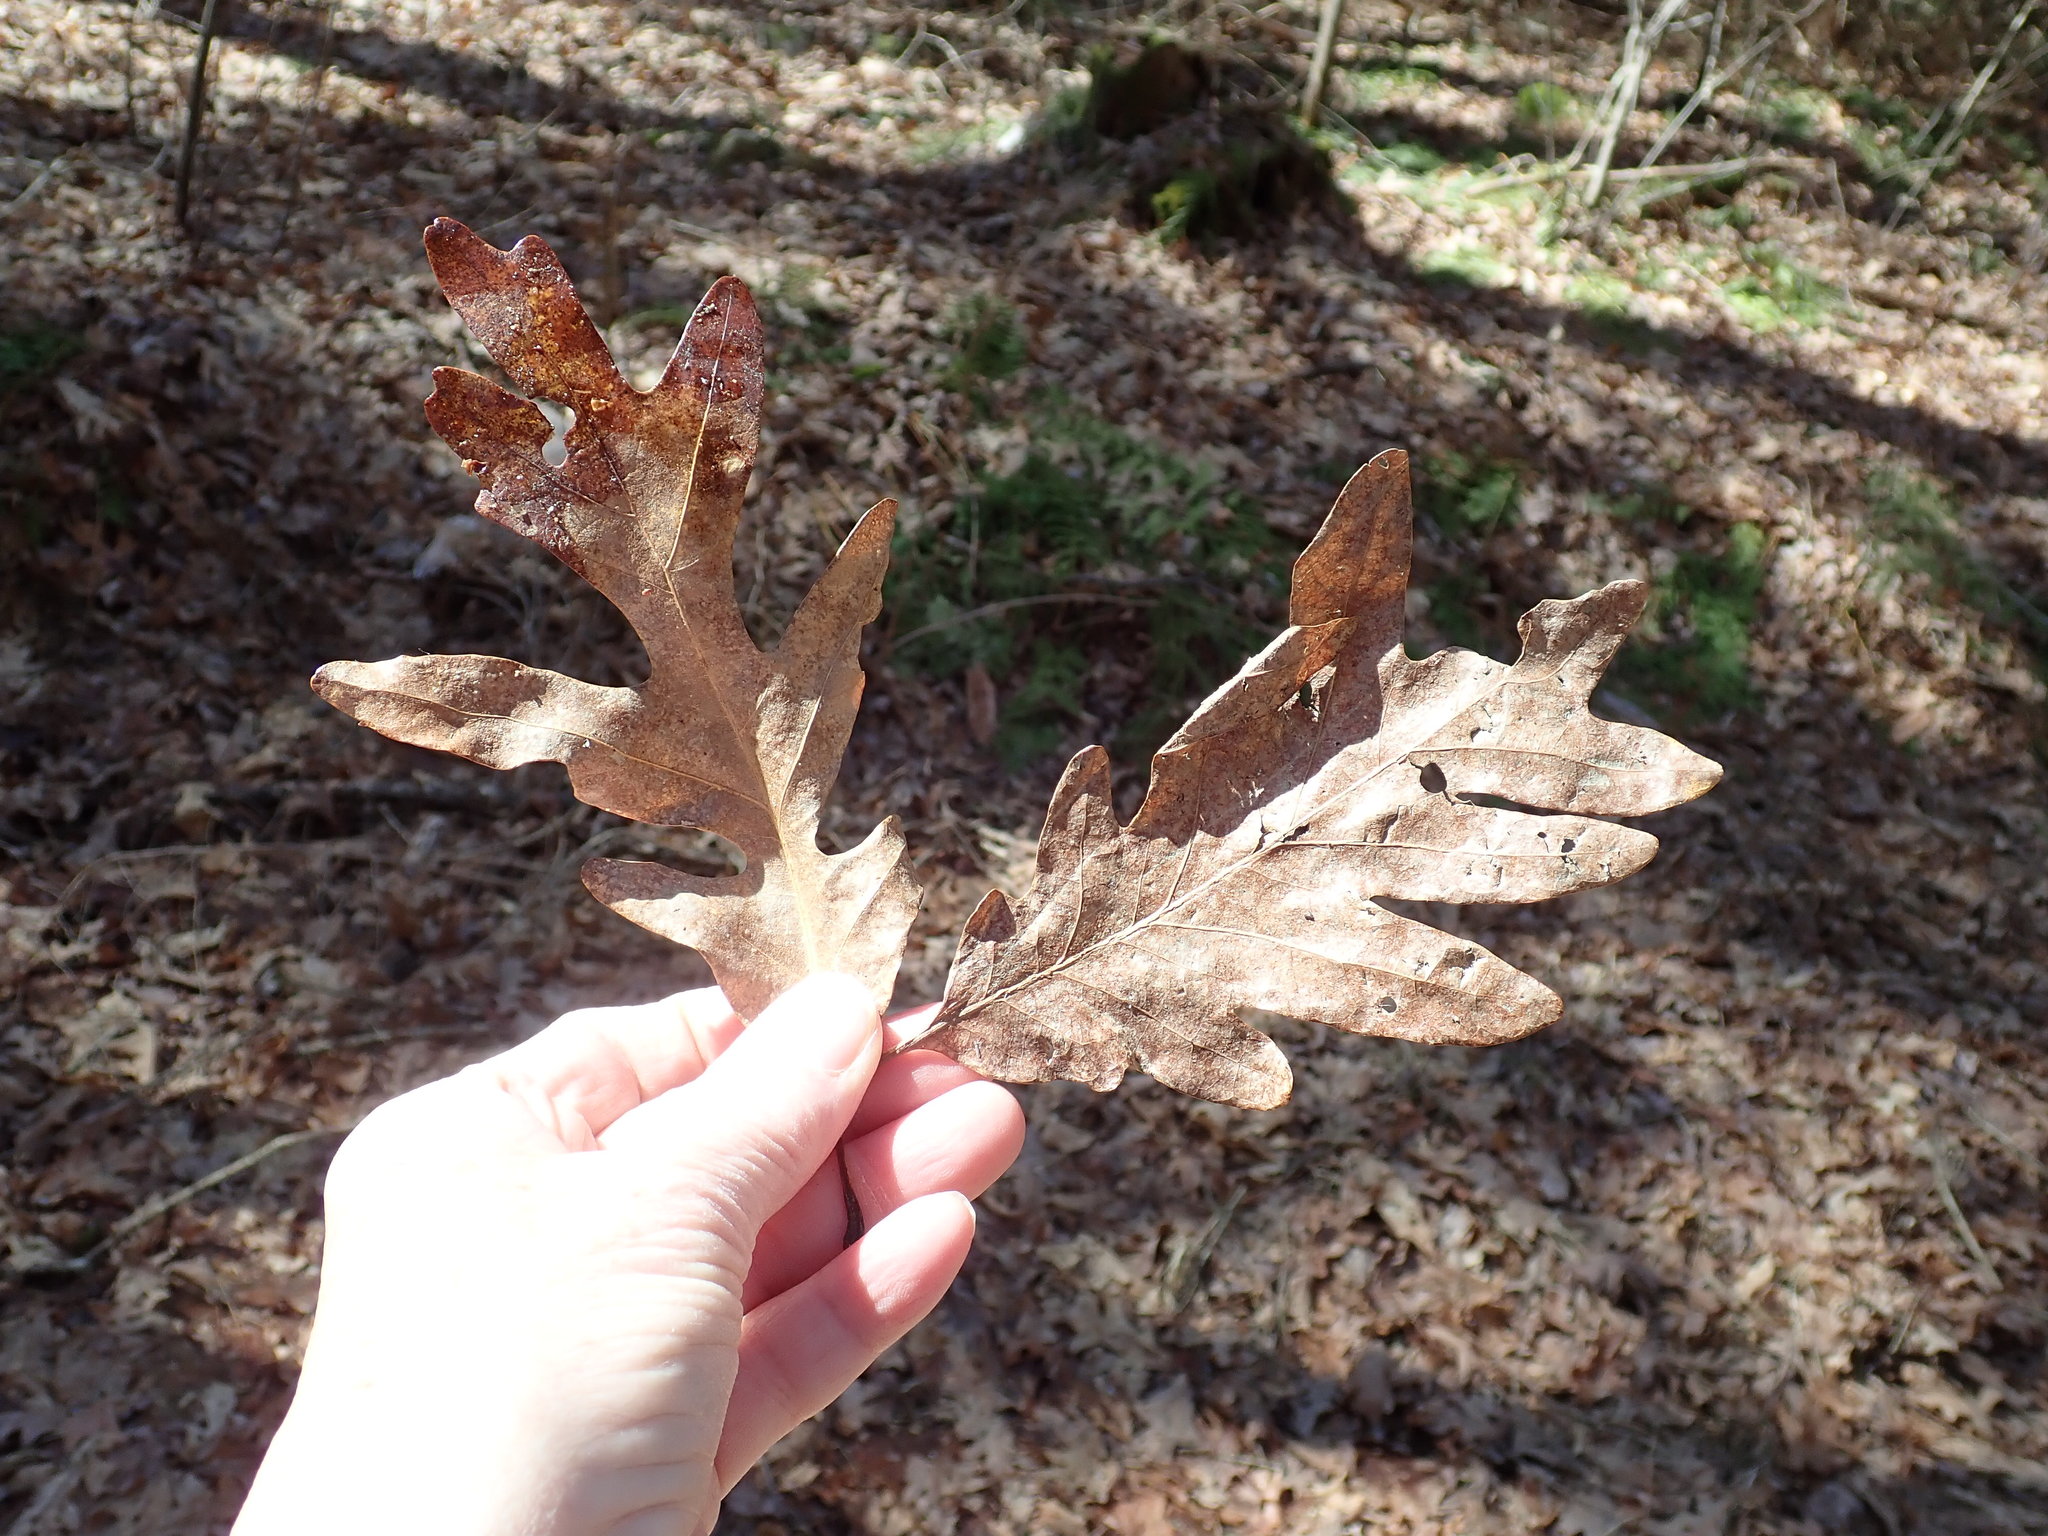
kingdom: Plantae
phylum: Tracheophyta
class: Magnoliopsida
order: Fagales
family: Fagaceae
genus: Quercus
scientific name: Quercus alba
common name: White oak
